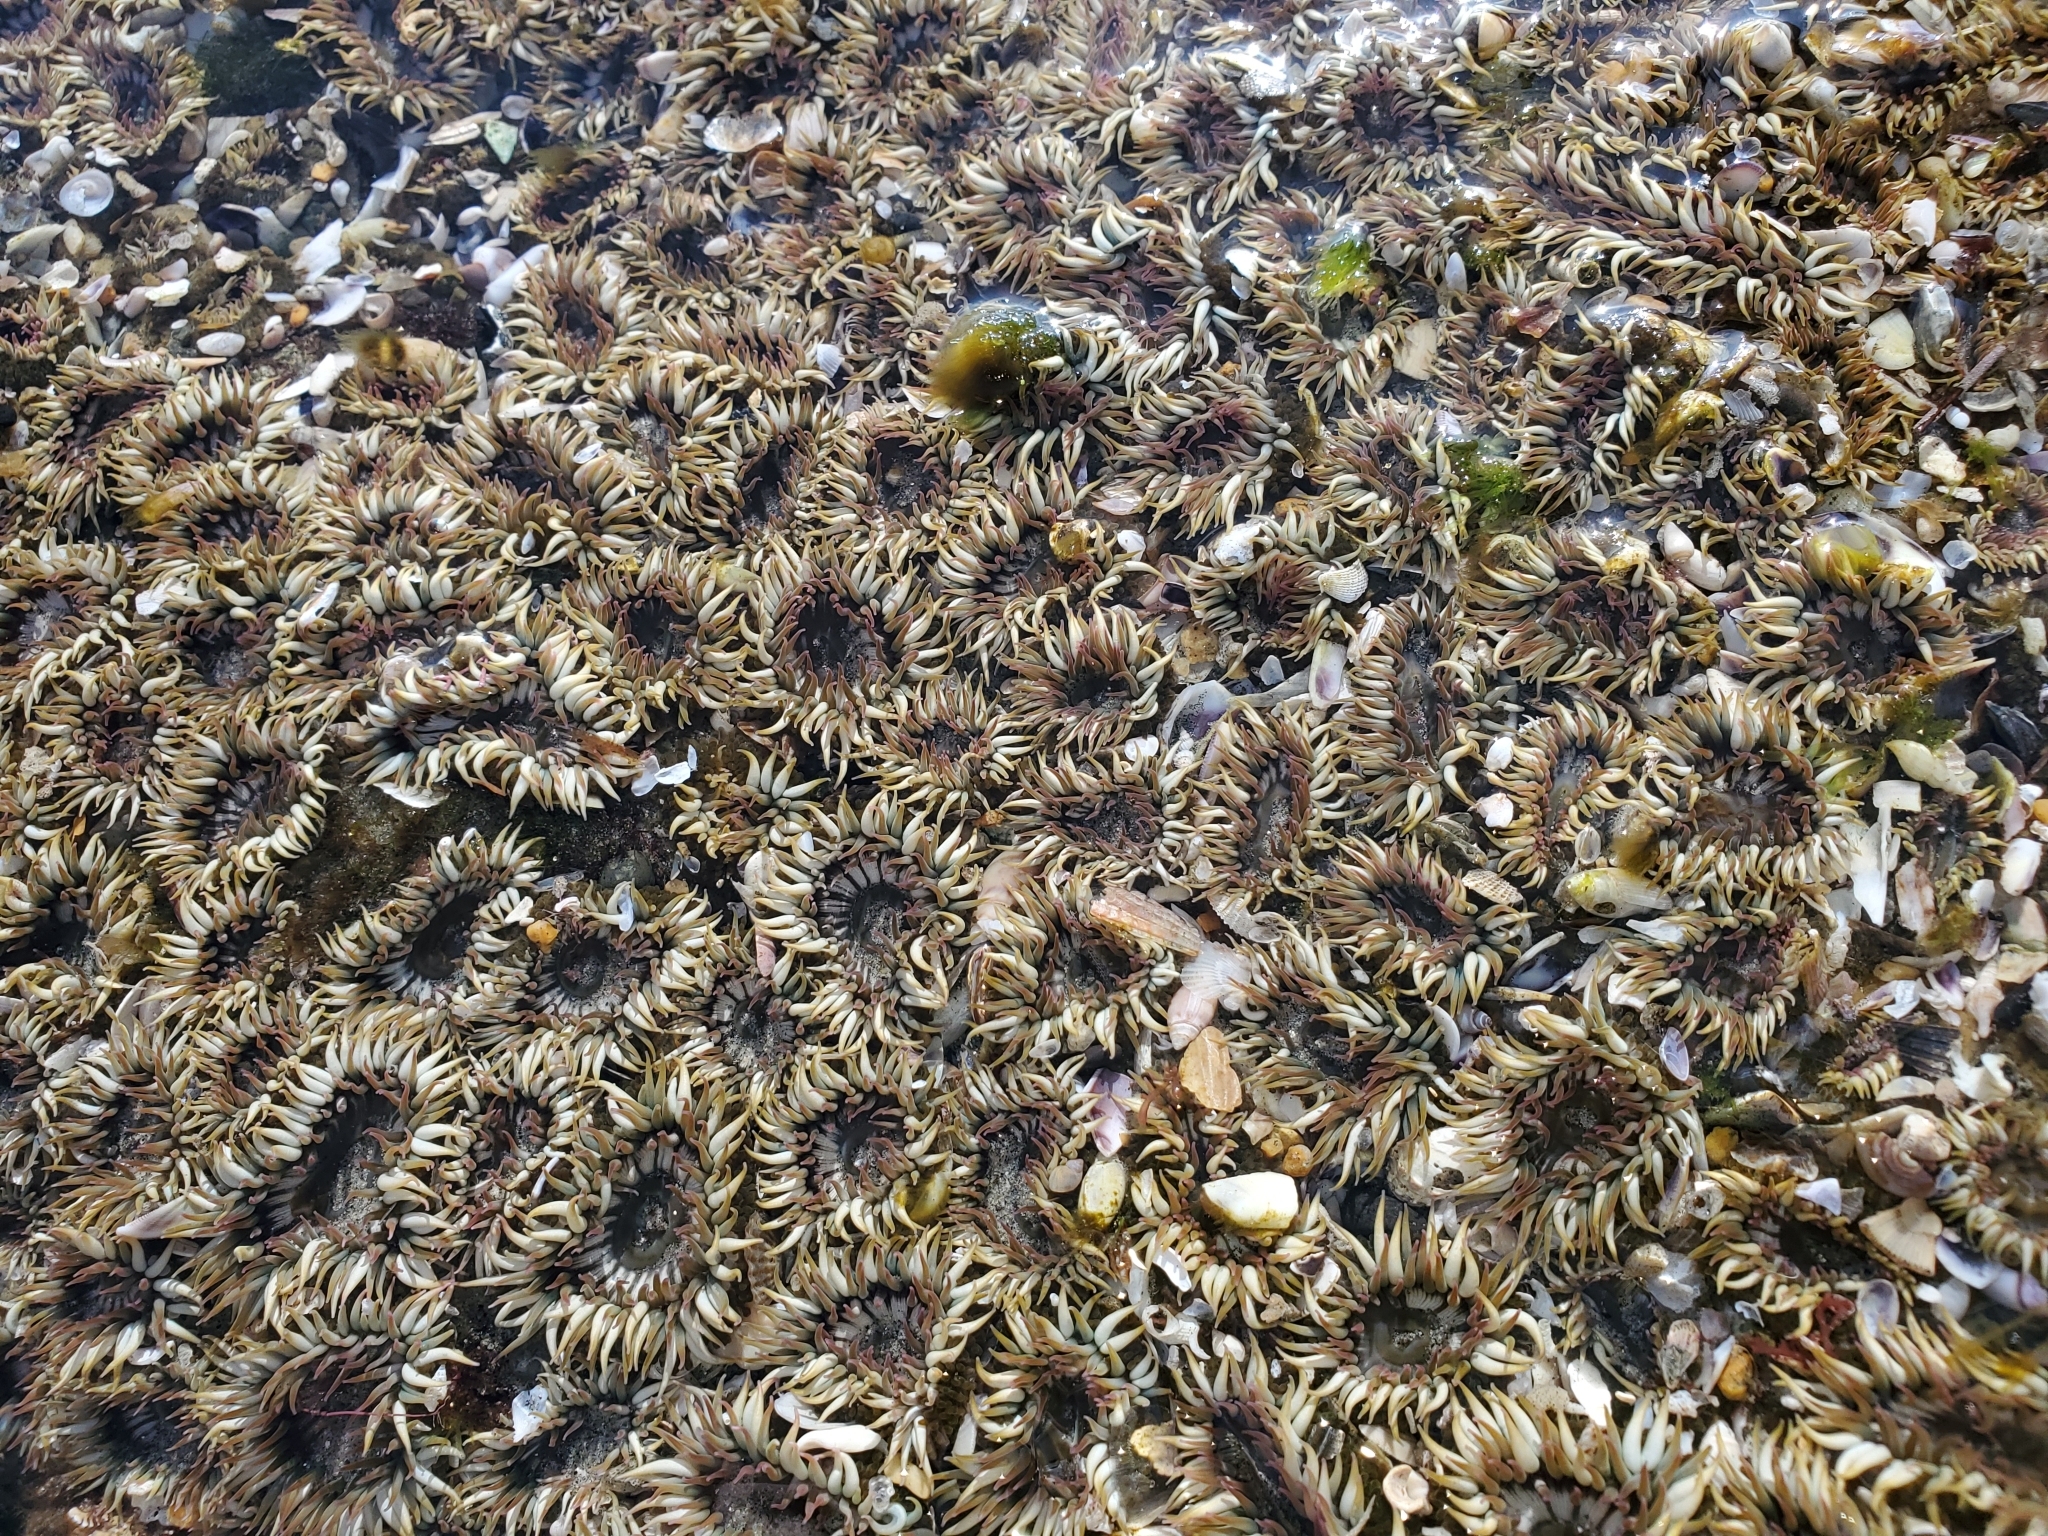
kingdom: Animalia
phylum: Cnidaria
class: Anthozoa
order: Actiniaria
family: Actiniidae
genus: Anthopleura
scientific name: Anthopleura elegantissima
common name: Clonal anemone
